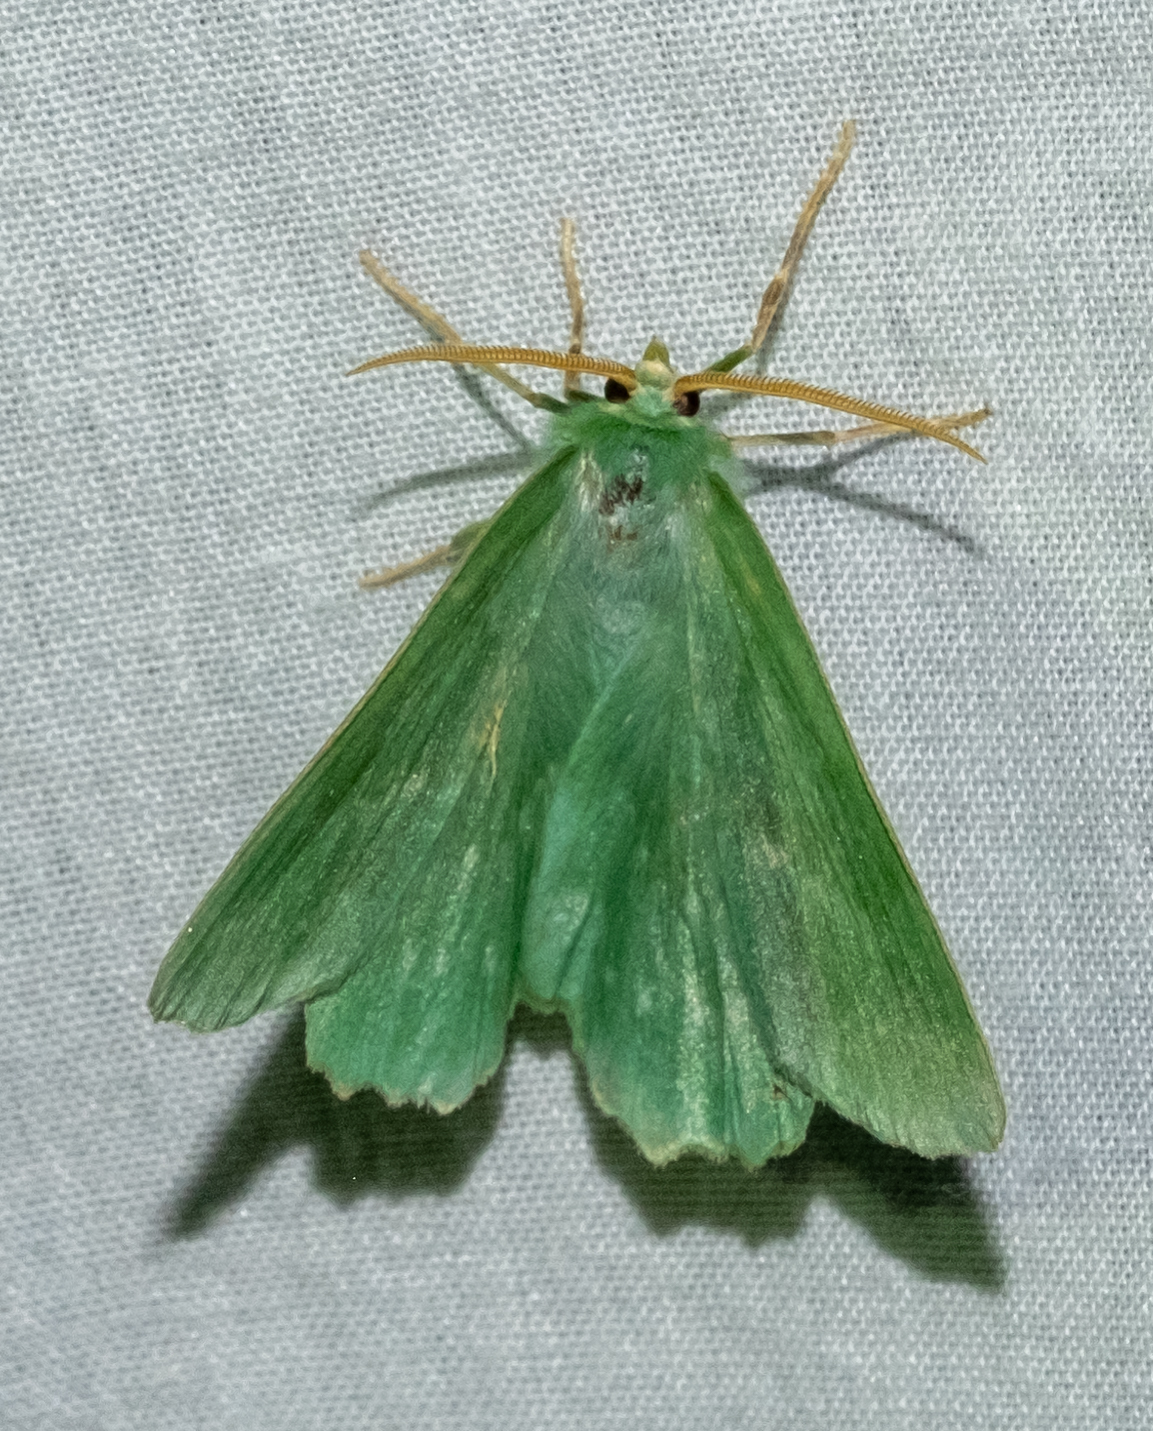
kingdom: Animalia
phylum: Arthropoda
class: Insecta
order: Lepidoptera
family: Geometridae
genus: Geometra
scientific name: Geometra papilionaria
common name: Large emerald
